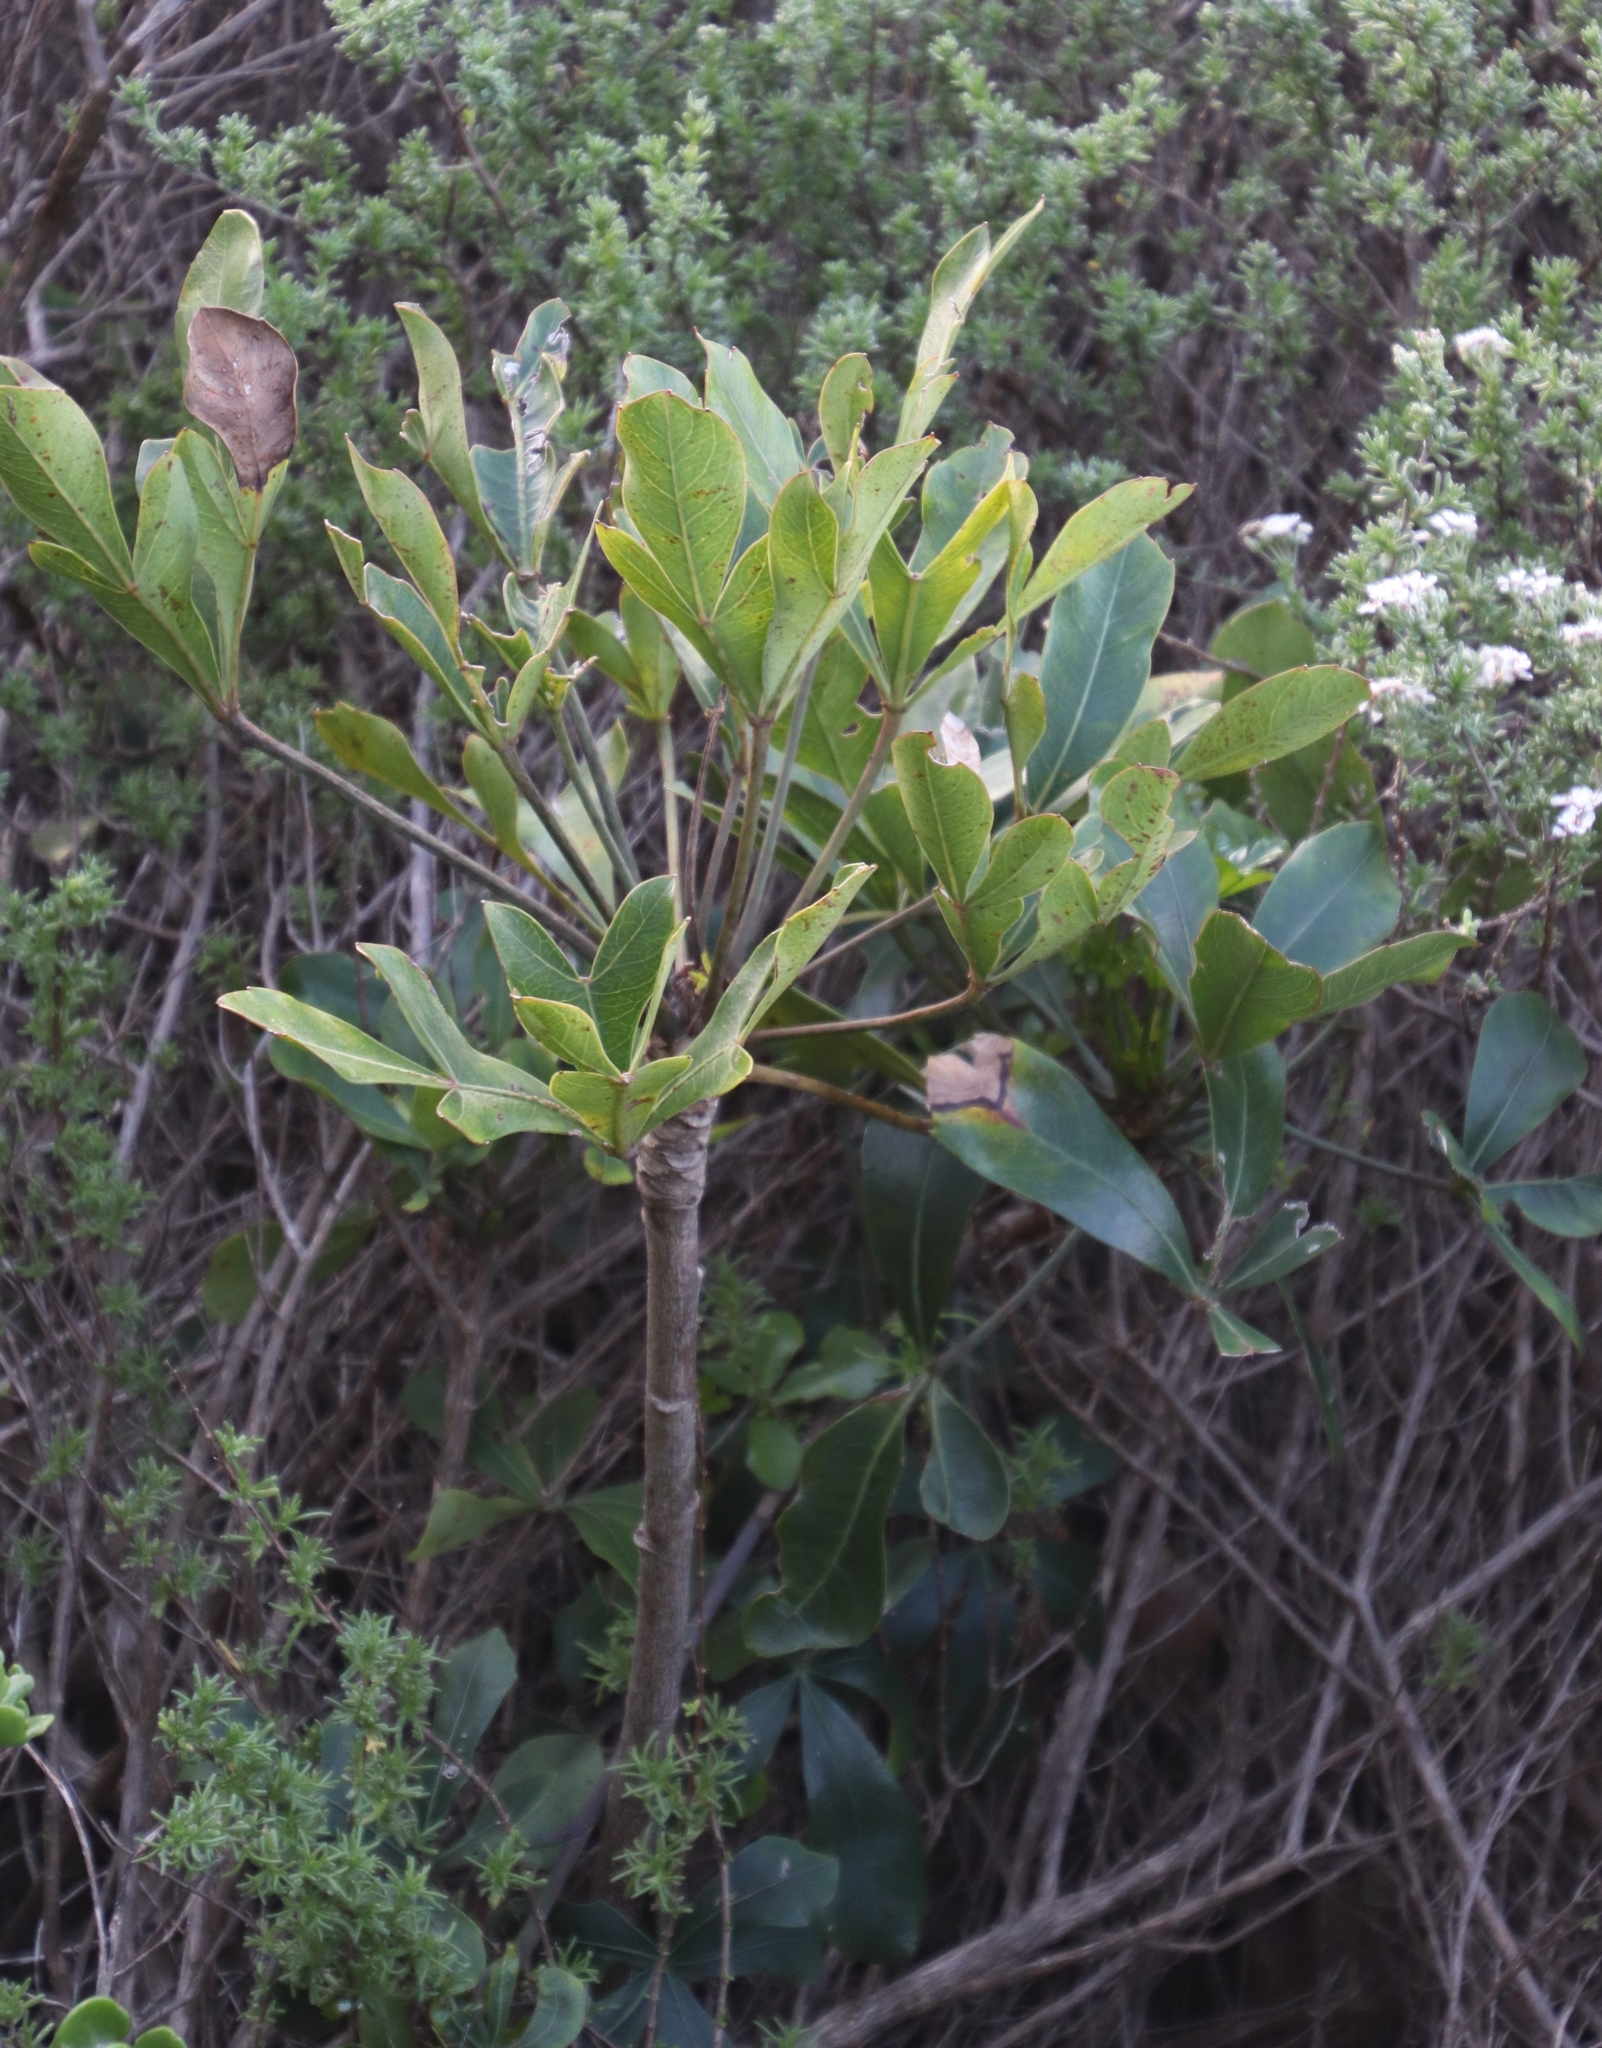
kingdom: Plantae
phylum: Tracheophyta
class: Magnoliopsida
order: Apiales
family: Araliaceae
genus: Cussonia
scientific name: Cussonia thyrsiflora
